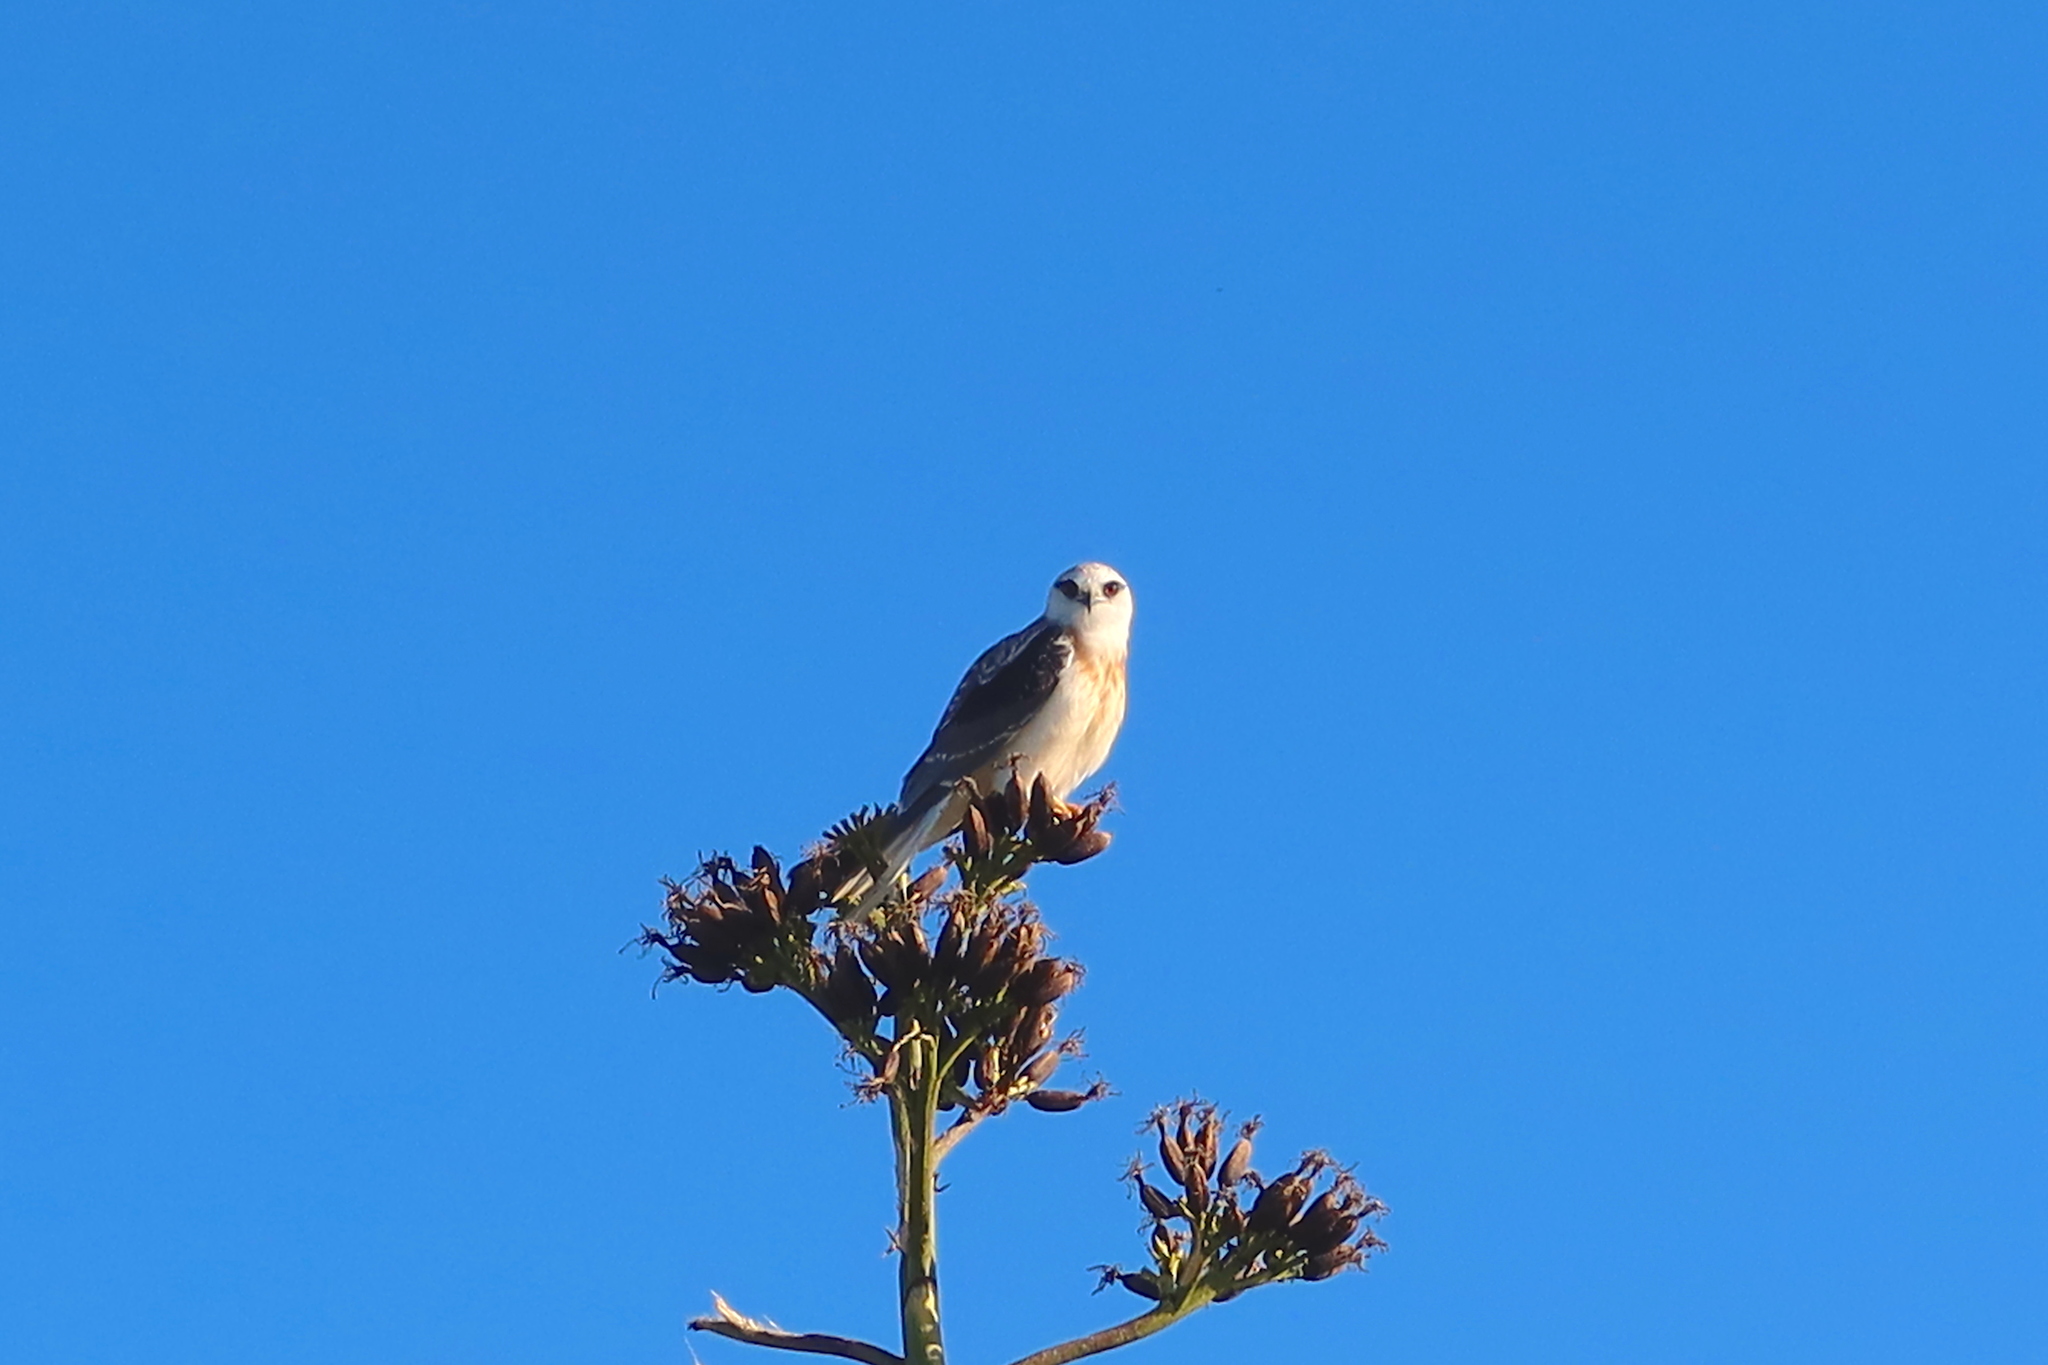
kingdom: Animalia
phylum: Chordata
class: Aves
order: Accipitriformes
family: Accipitridae
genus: Elanus
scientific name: Elanus axillaris
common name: Black-shouldered kite
